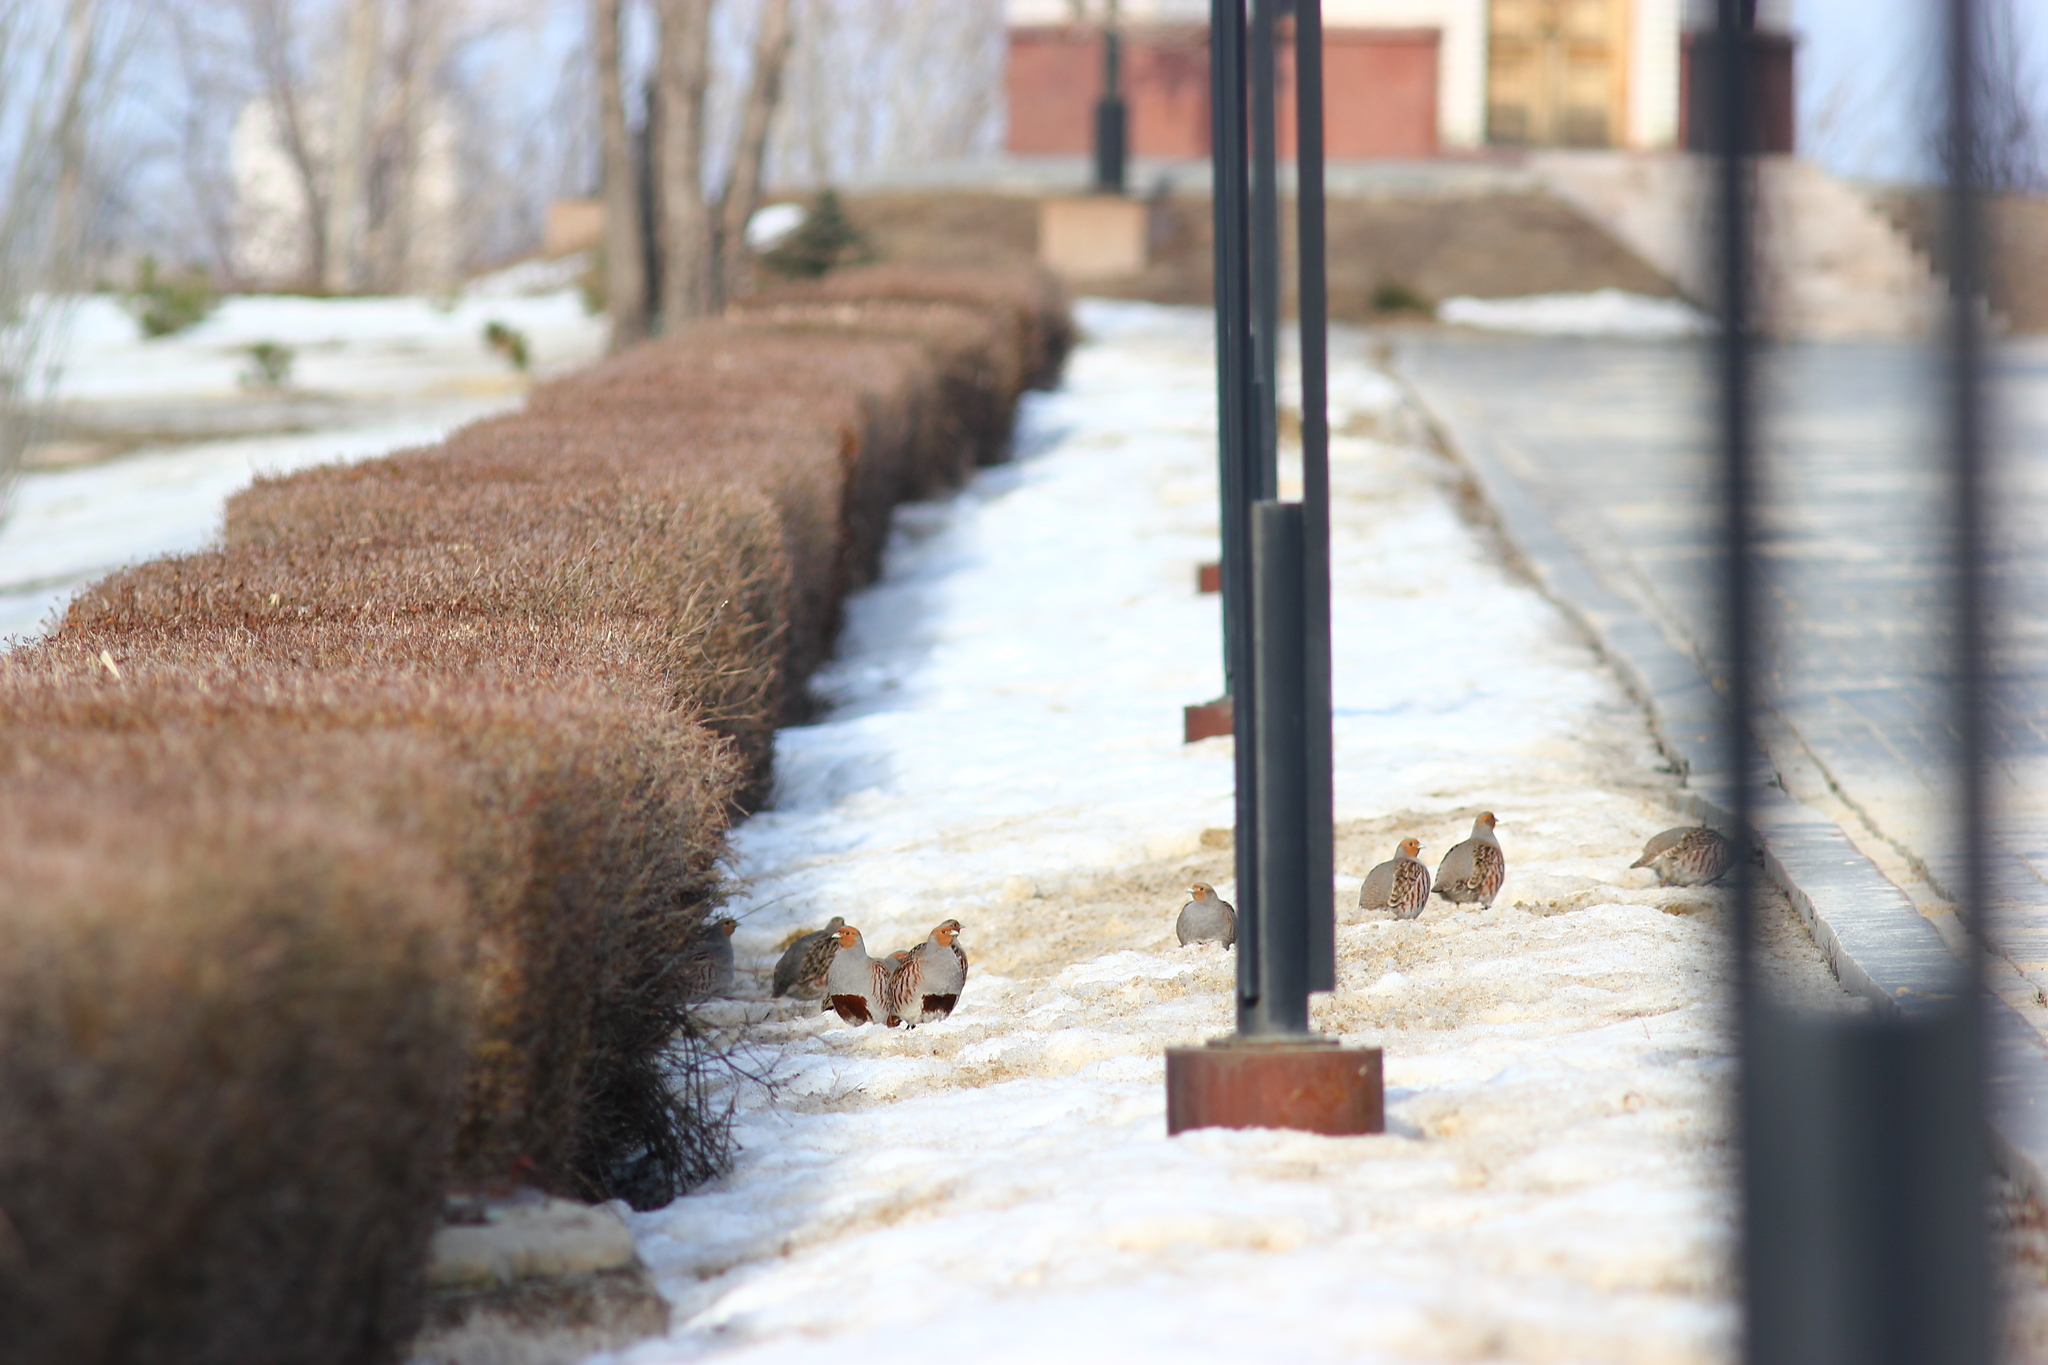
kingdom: Animalia
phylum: Chordata
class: Aves
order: Galliformes
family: Phasianidae
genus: Perdix
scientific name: Perdix perdix
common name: Grey partridge
